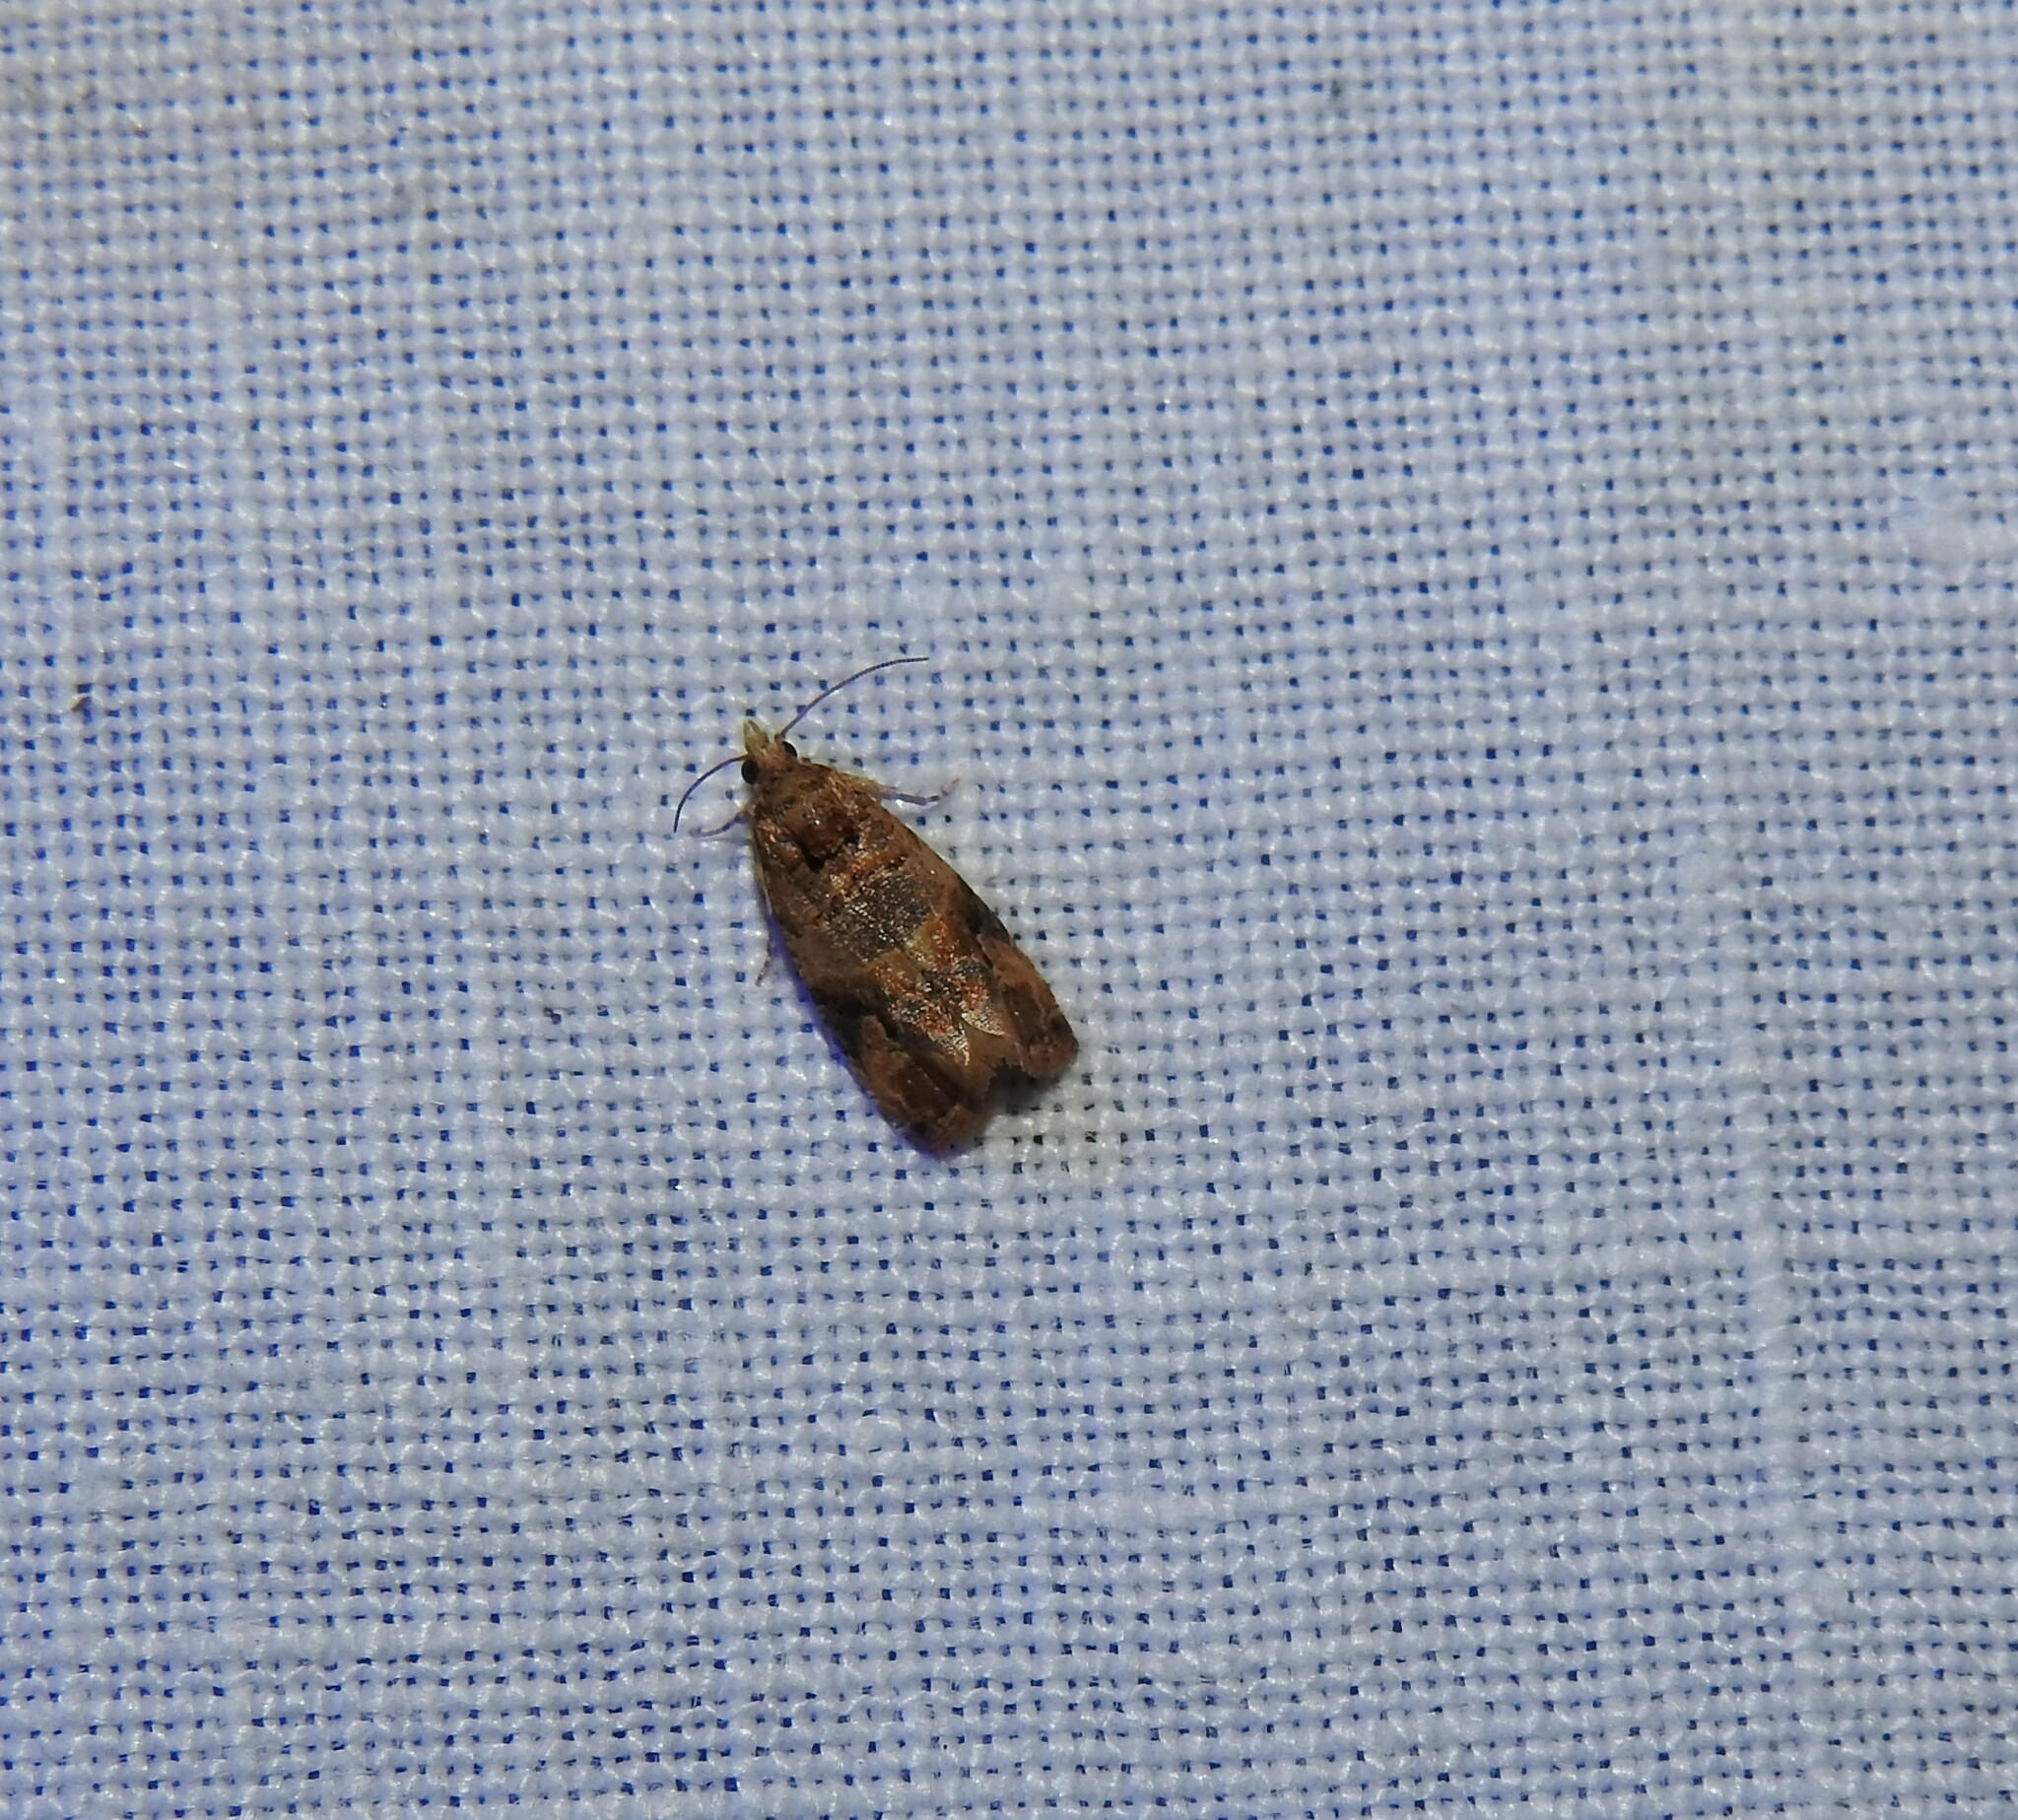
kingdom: Animalia
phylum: Arthropoda
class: Insecta
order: Lepidoptera
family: Tortricidae
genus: Lobesia
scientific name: Lobesia botrana
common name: European vine moth
